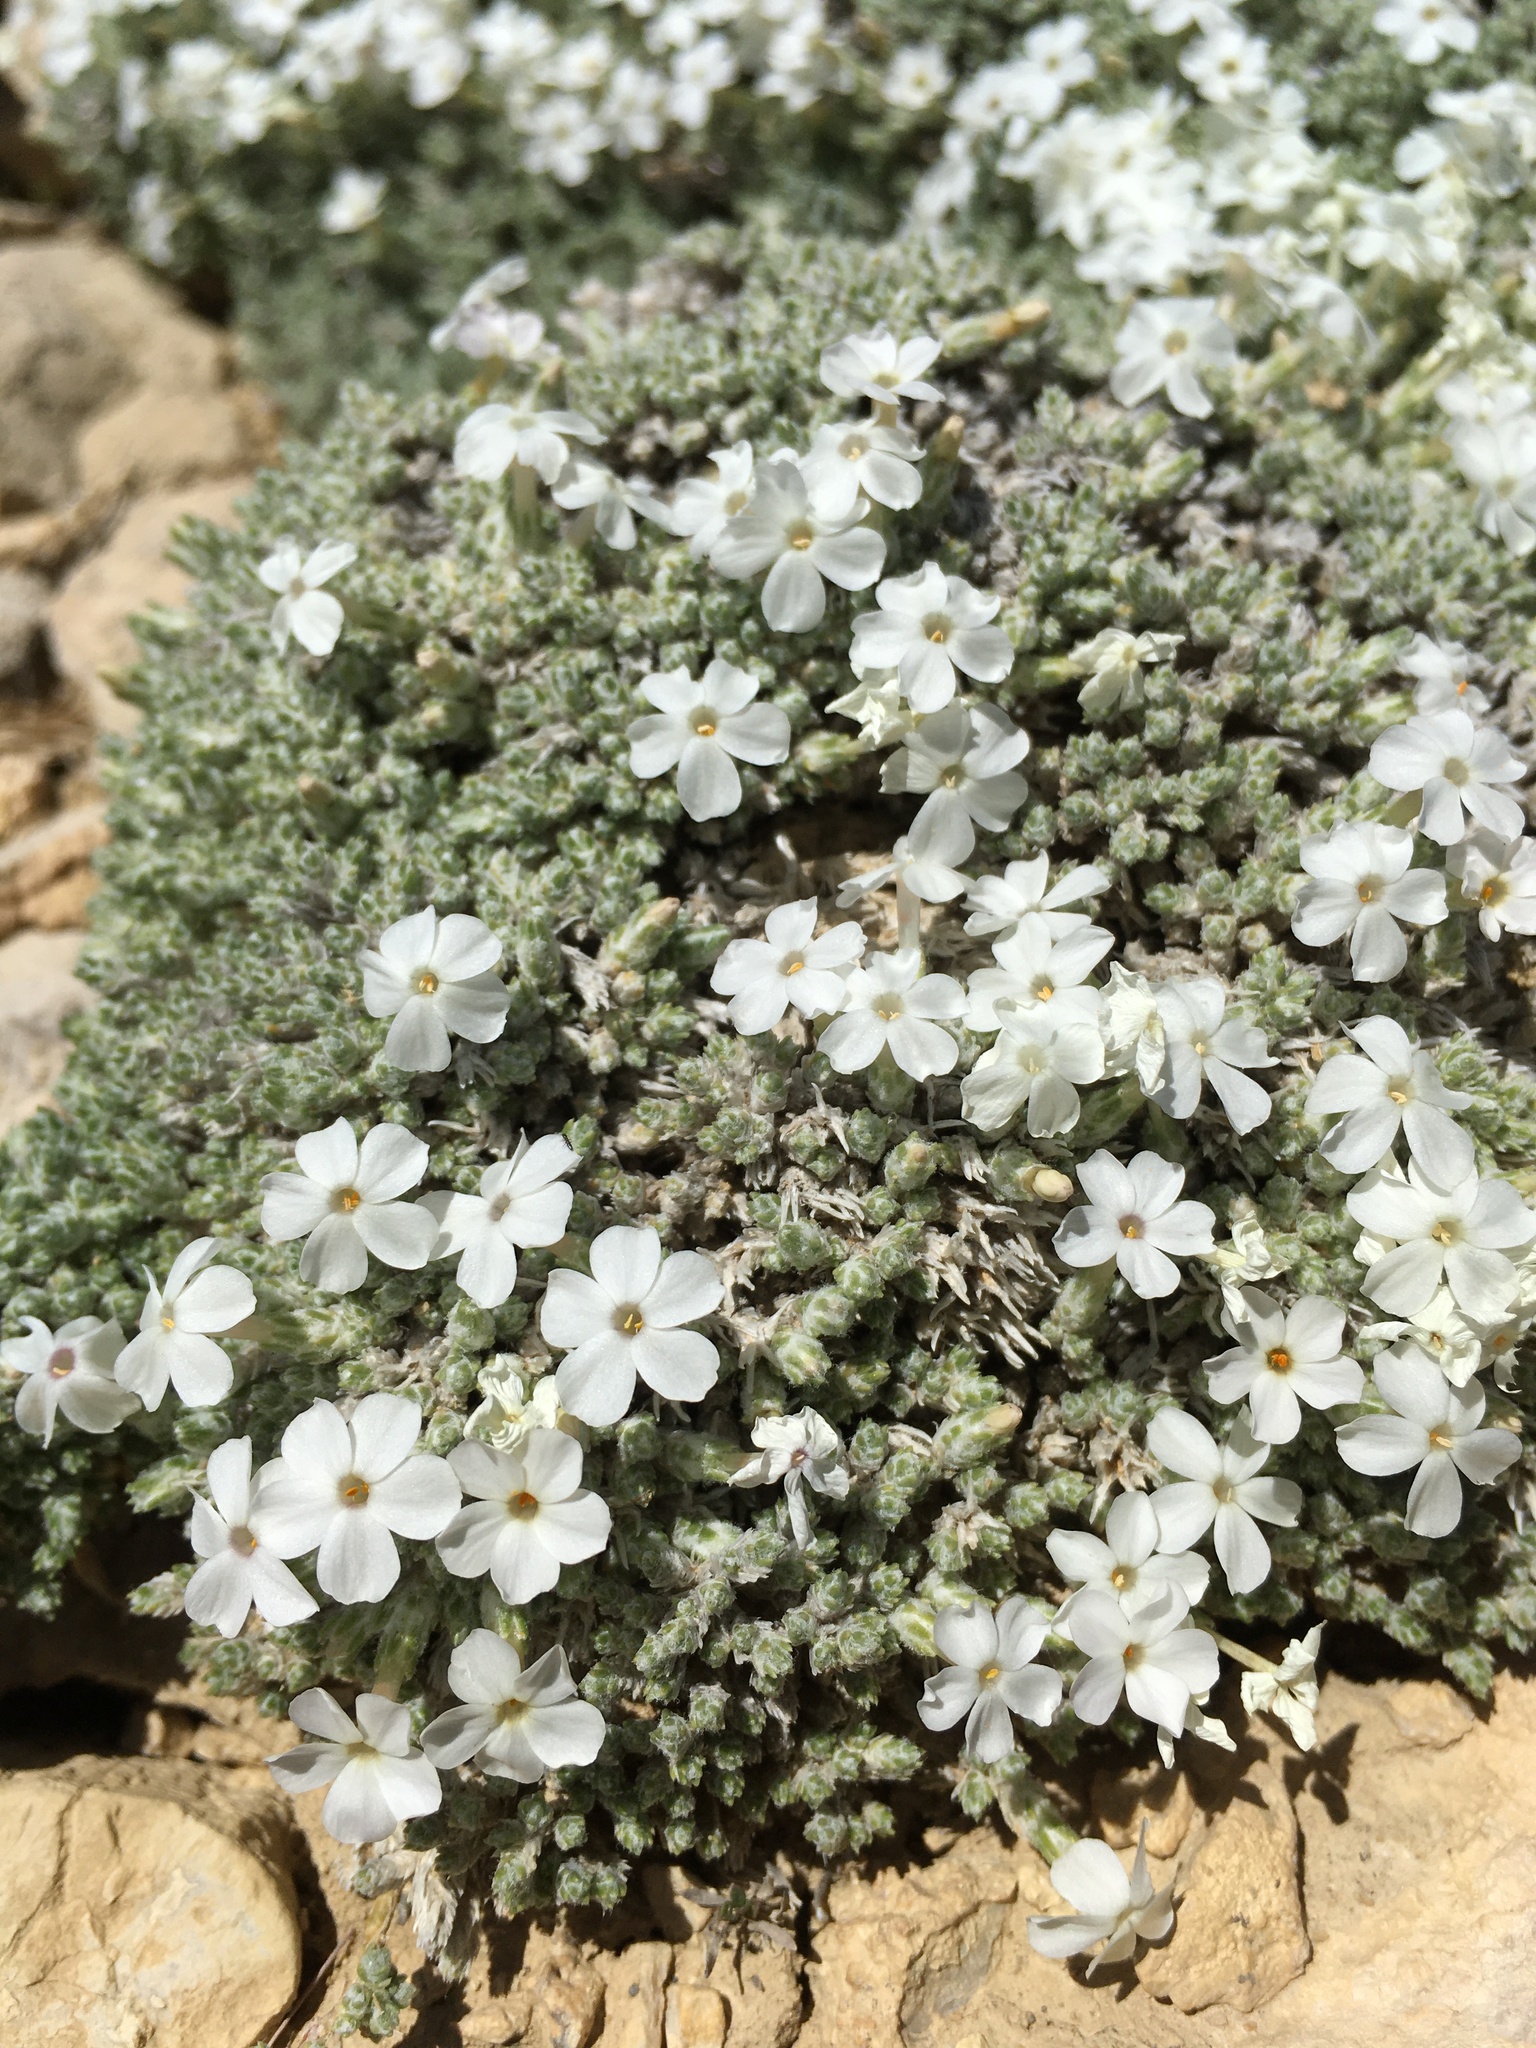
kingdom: Plantae
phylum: Tracheophyta
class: Magnoliopsida
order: Ericales
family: Polemoniaceae
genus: Phlox
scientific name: Phlox hoodii
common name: Moss phlox
